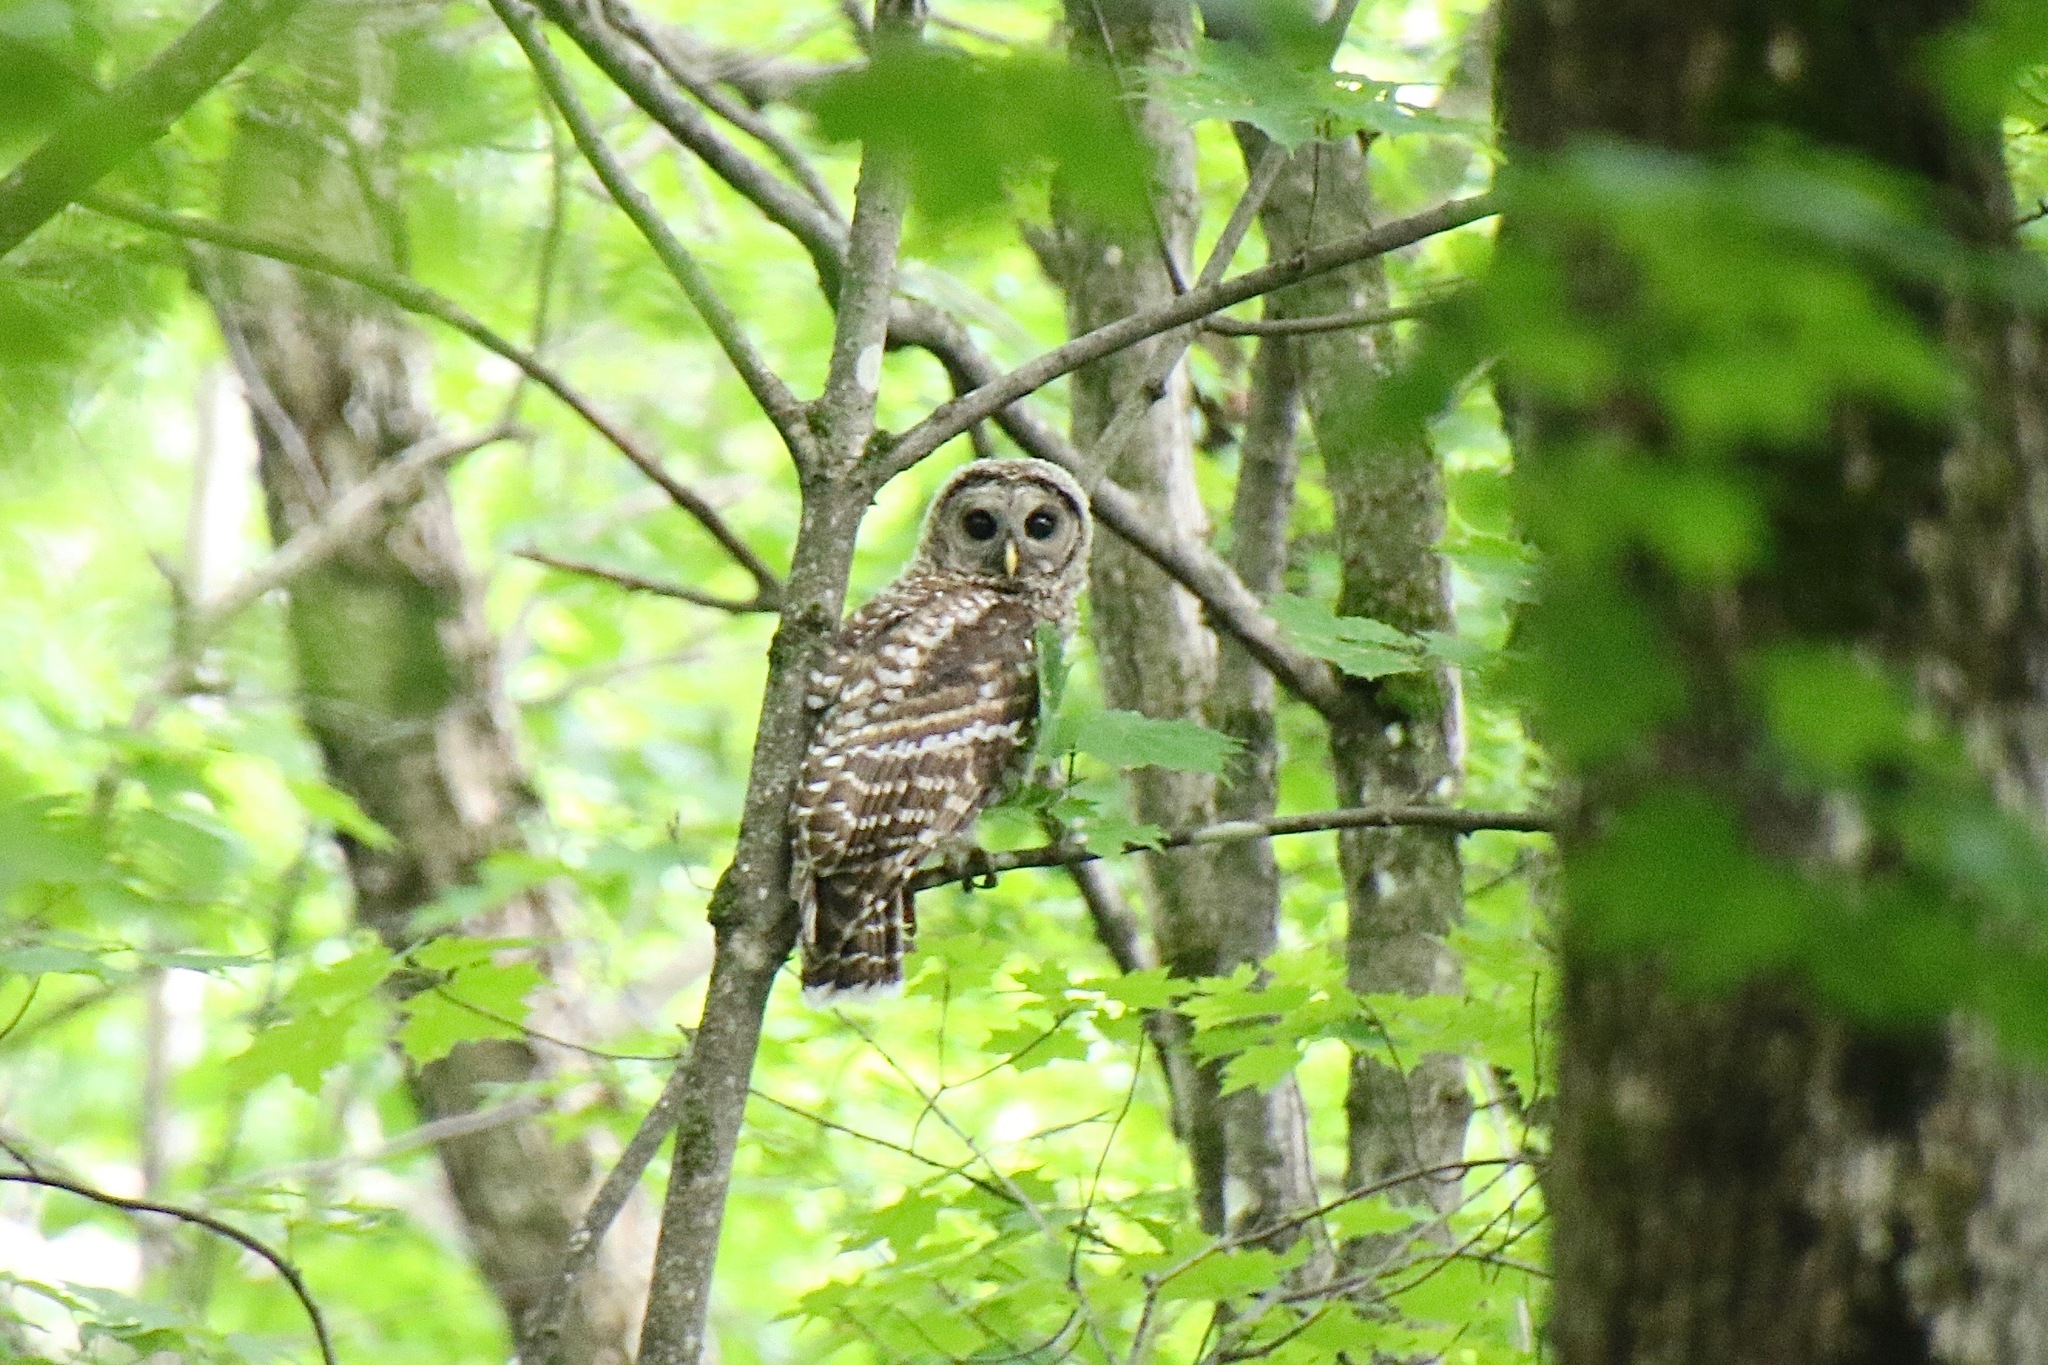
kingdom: Animalia
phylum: Chordata
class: Aves
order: Strigiformes
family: Strigidae
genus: Strix
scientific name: Strix varia
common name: Barred owl
